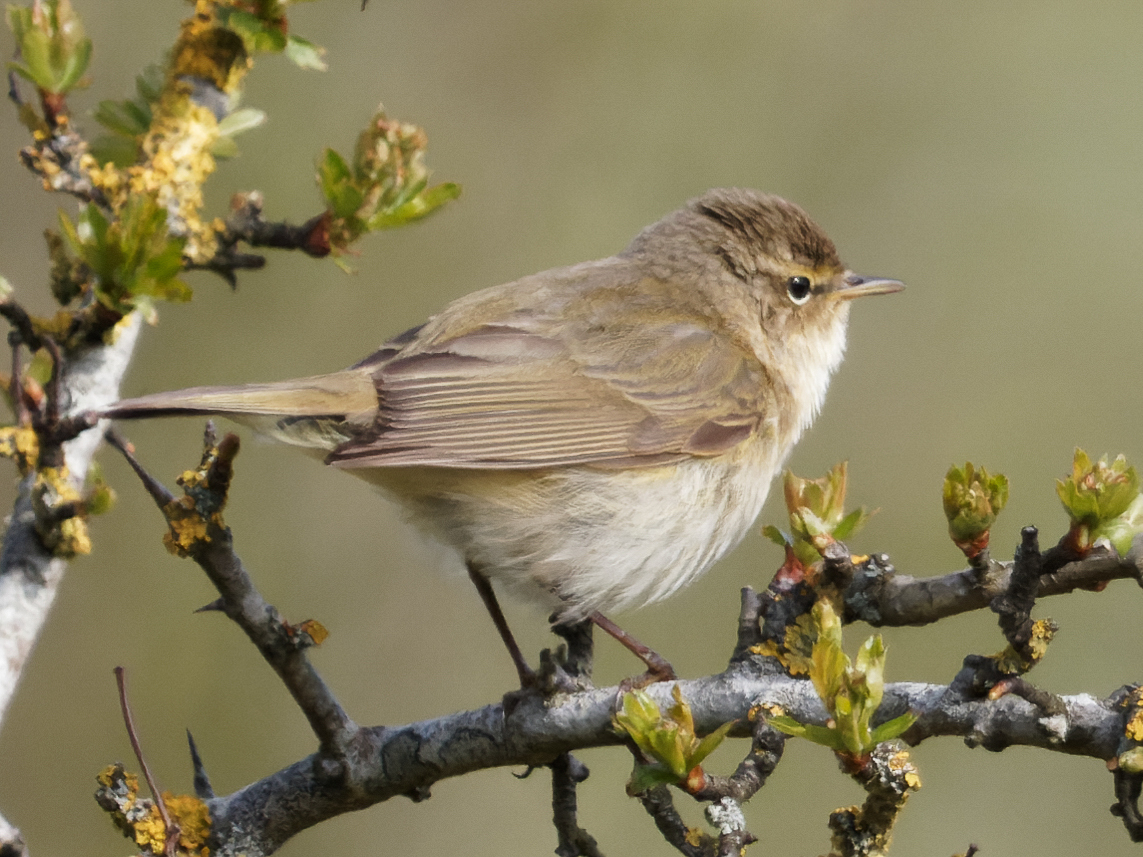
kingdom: Animalia
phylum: Chordata
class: Aves
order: Passeriformes
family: Phylloscopidae
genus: Phylloscopus
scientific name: Phylloscopus collybita
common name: Common chiffchaff
